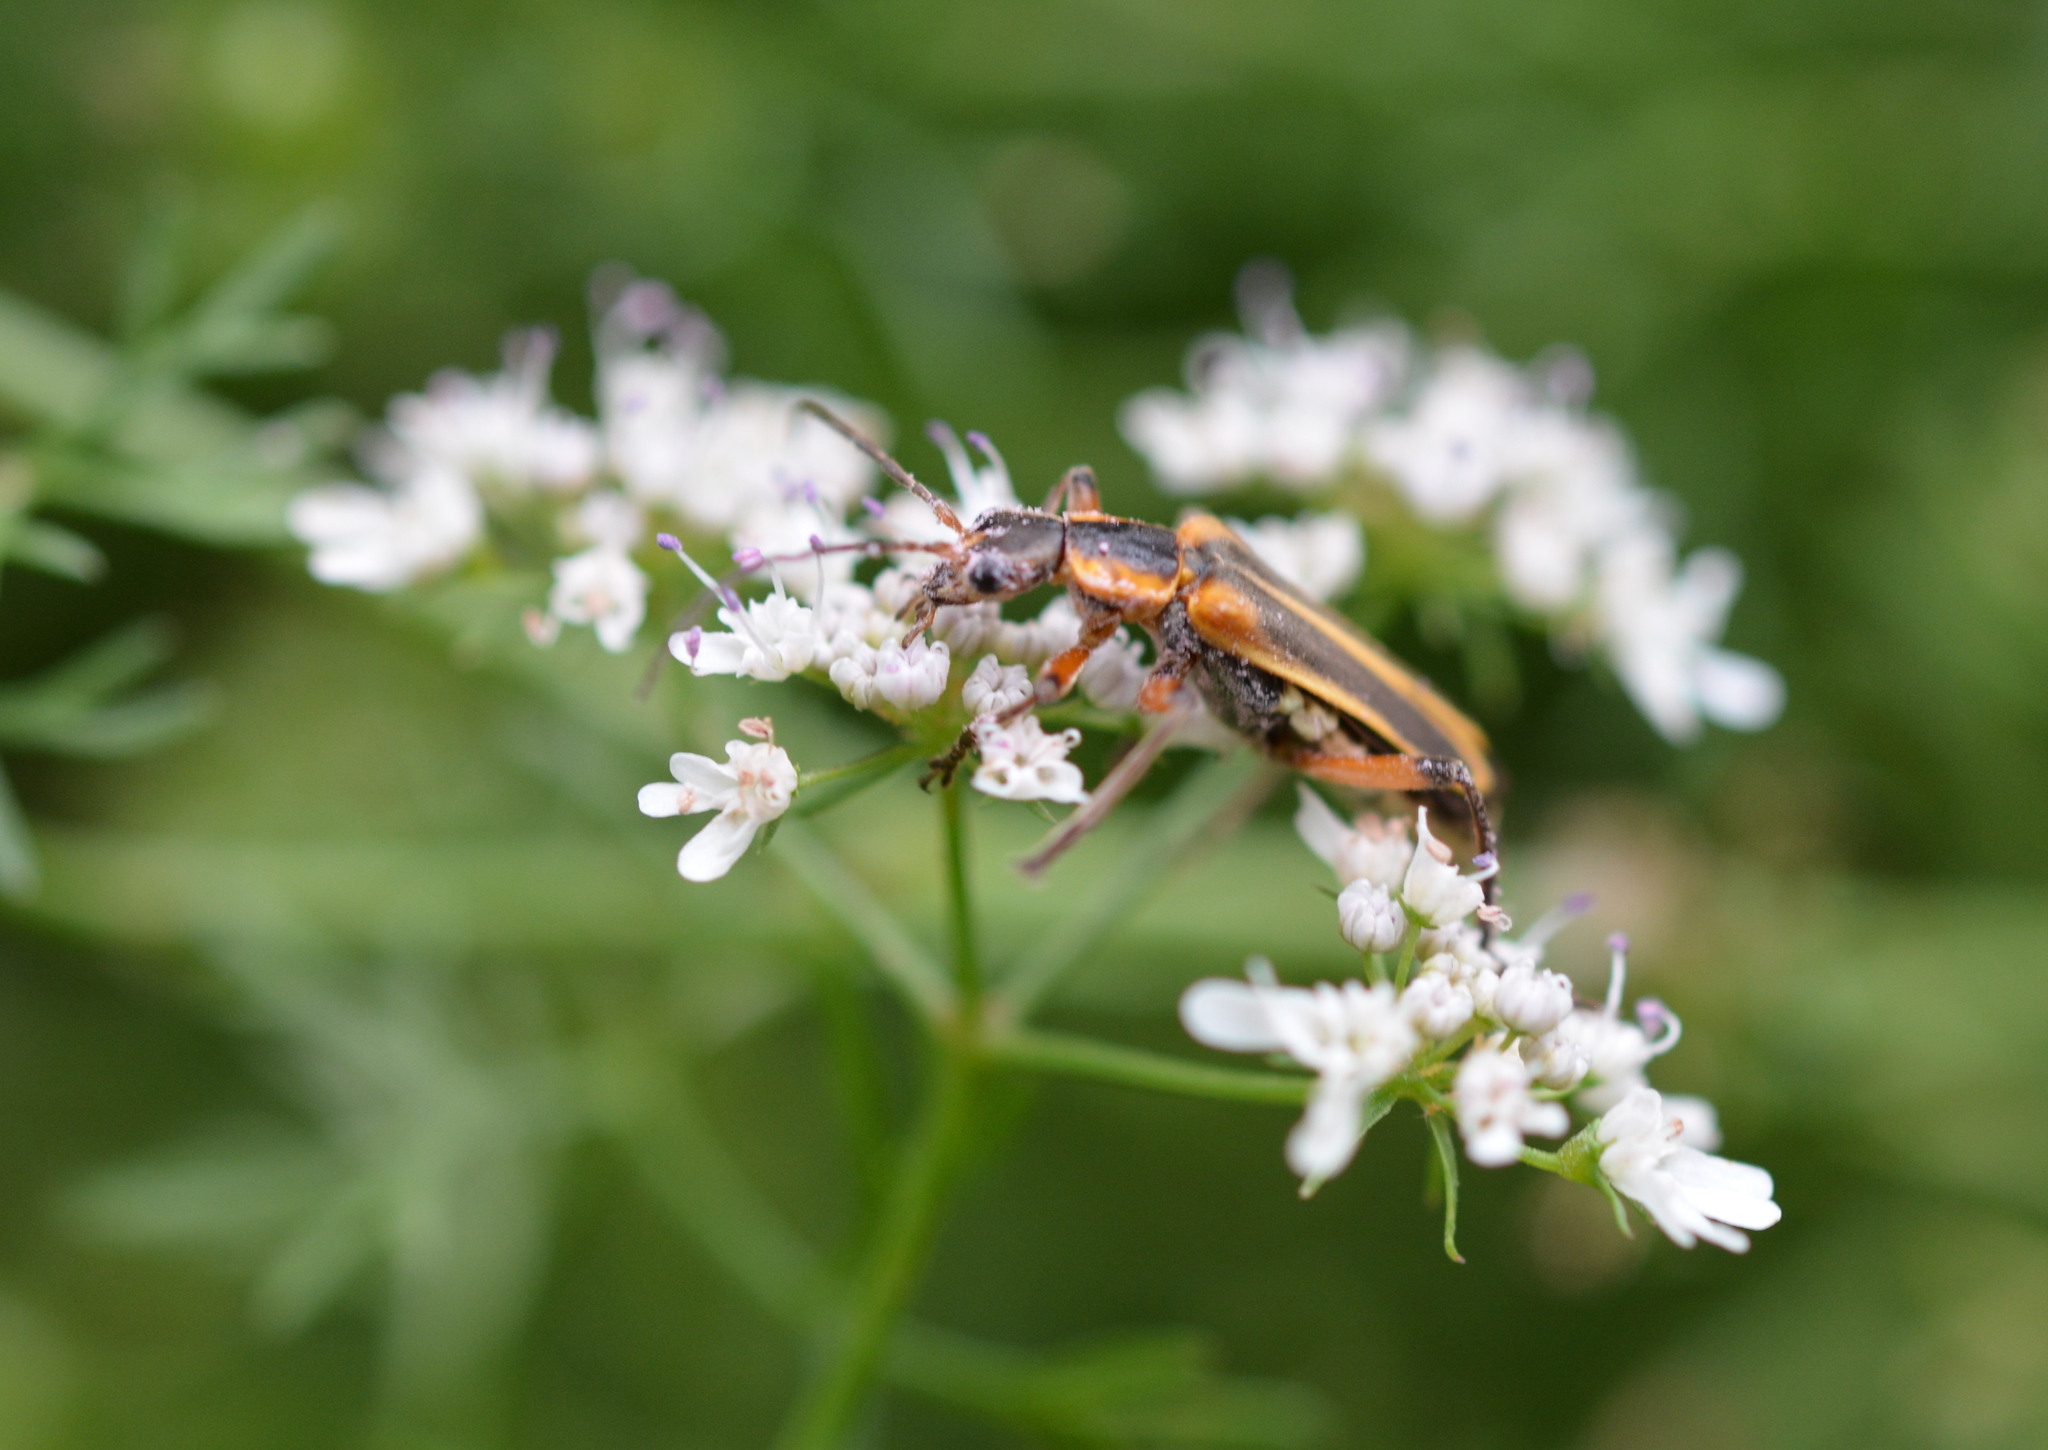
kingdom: Animalia
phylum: Arthropoda
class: Insecta
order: Coleoptera
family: Cantharidae
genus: Chauliognathus
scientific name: Chauliognathus marginatus
